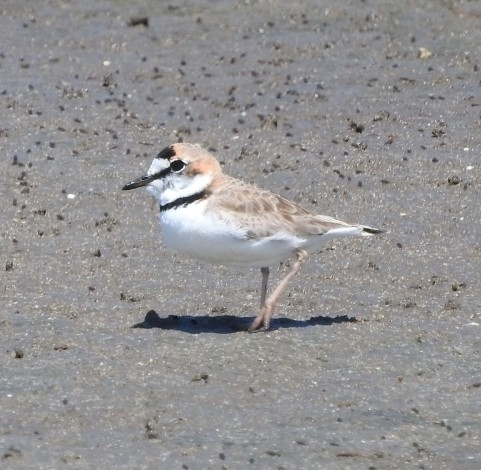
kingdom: Animalia
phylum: Chordata
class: Aves
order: Charadriiformes
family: Charadriidae
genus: Anarhynchus
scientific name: Anarhynchus
